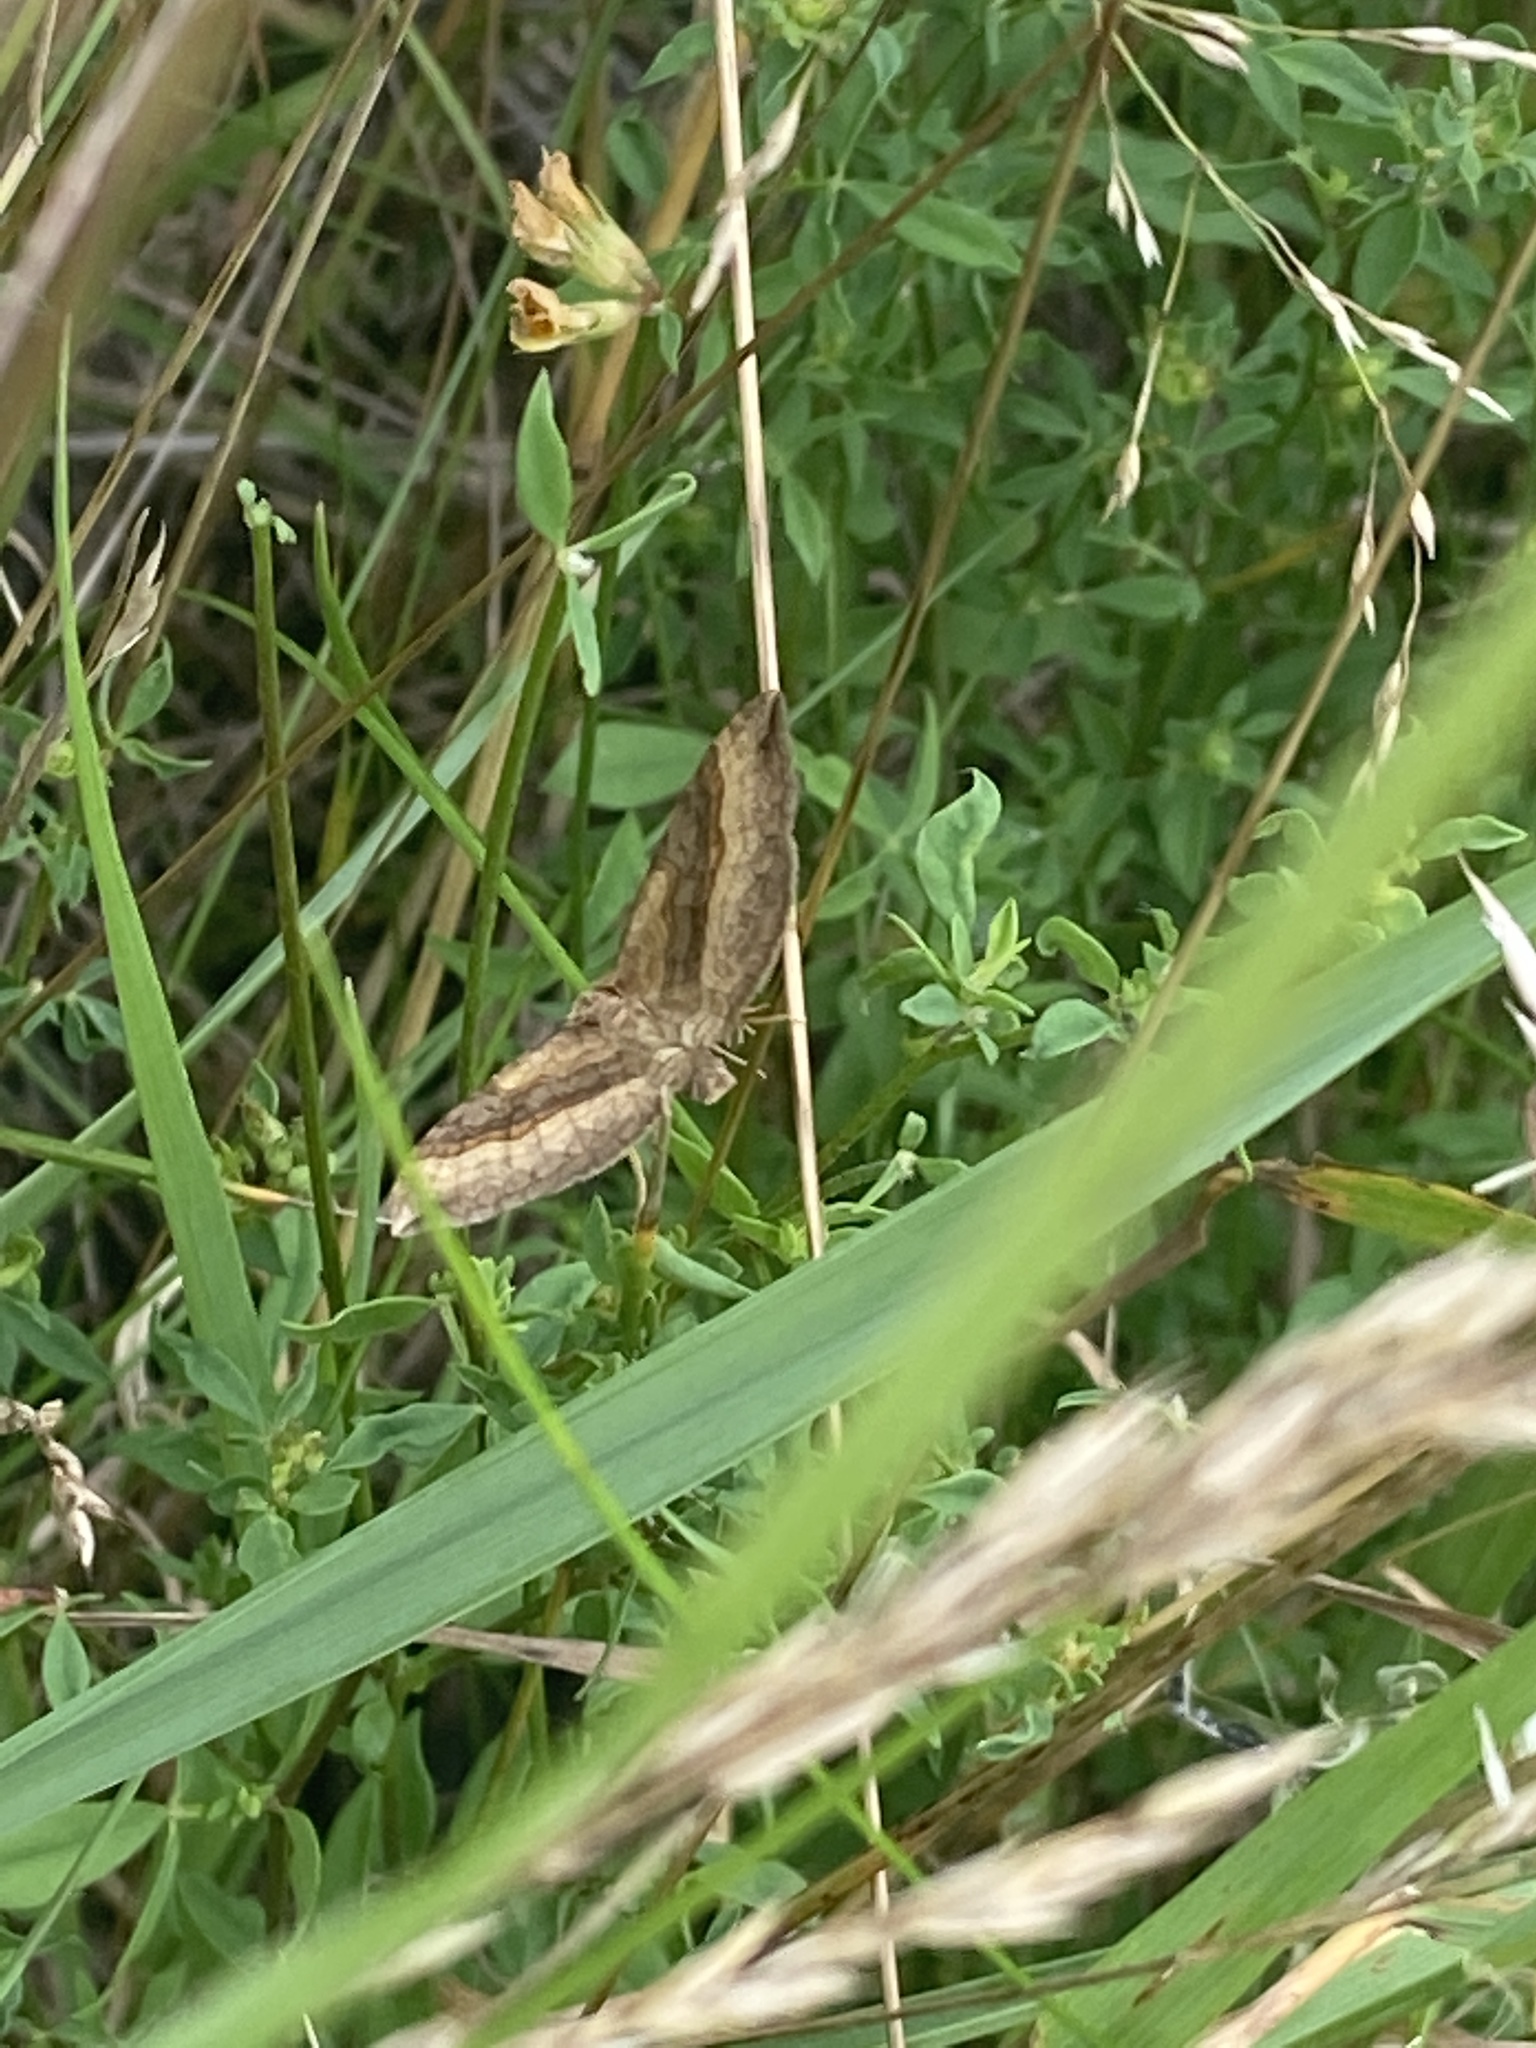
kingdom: Animalia
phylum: Arthropoda
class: Insecta
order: Lepidoptera
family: Geometridae
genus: Scotopteryx
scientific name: Scotopteryx chenopodiata
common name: Shaded broad-bar
